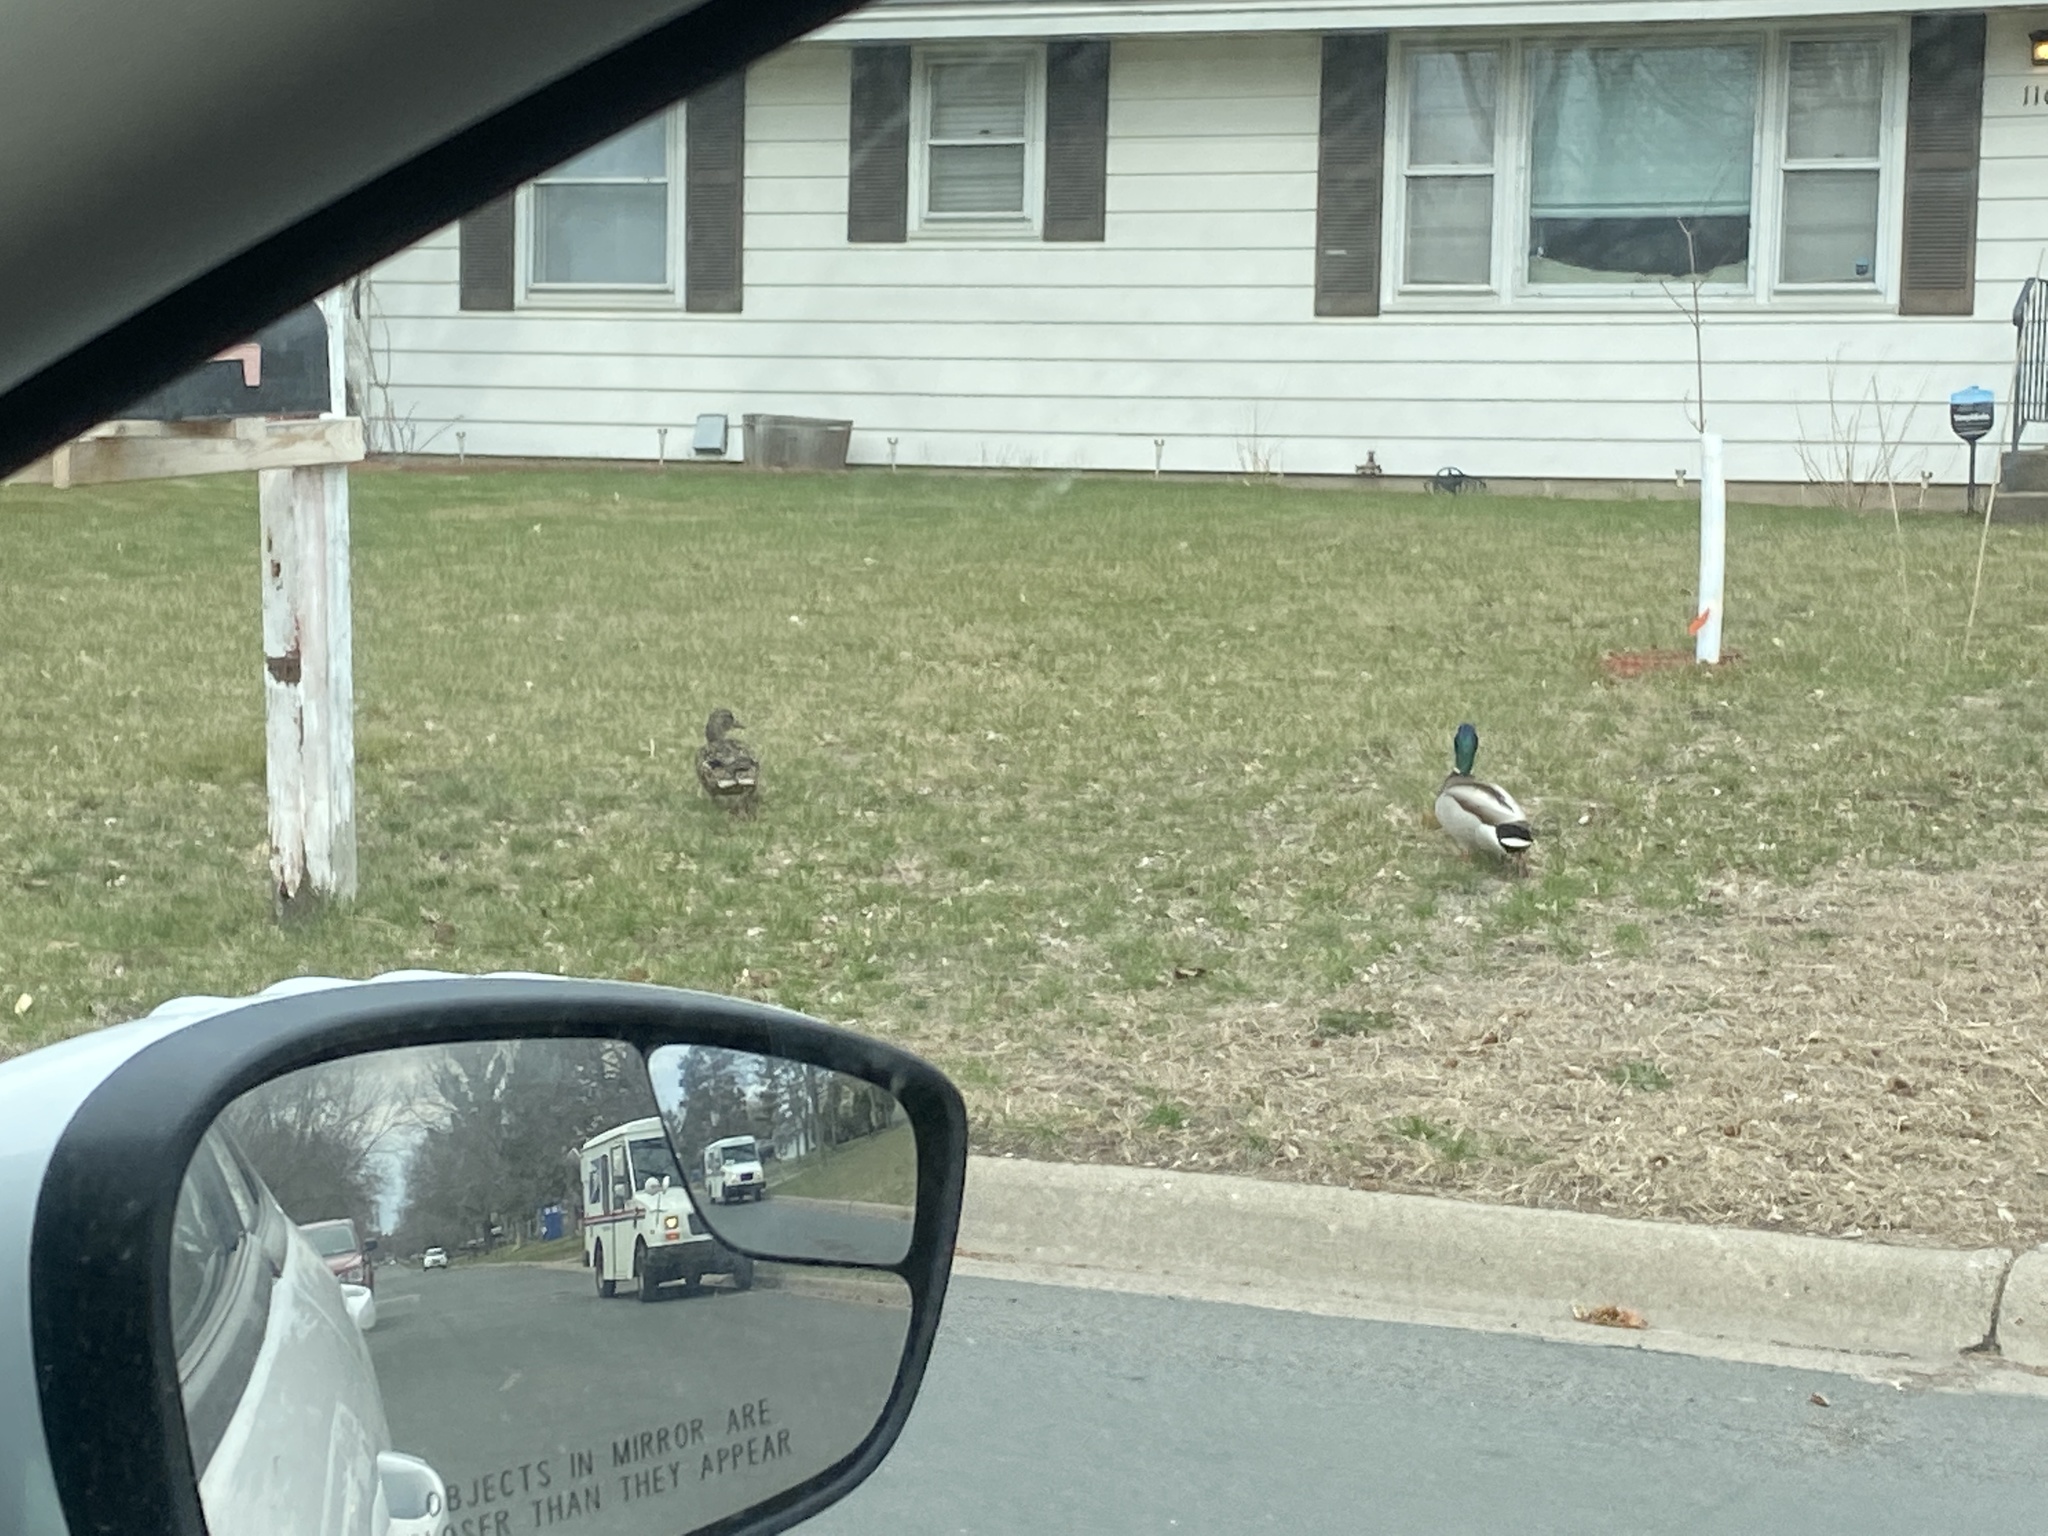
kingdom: Animalia
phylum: Chordata
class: Aves
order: Anseriformes
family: Anatidae
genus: Anas
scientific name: Anas platyrhynchos
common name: Mallard
